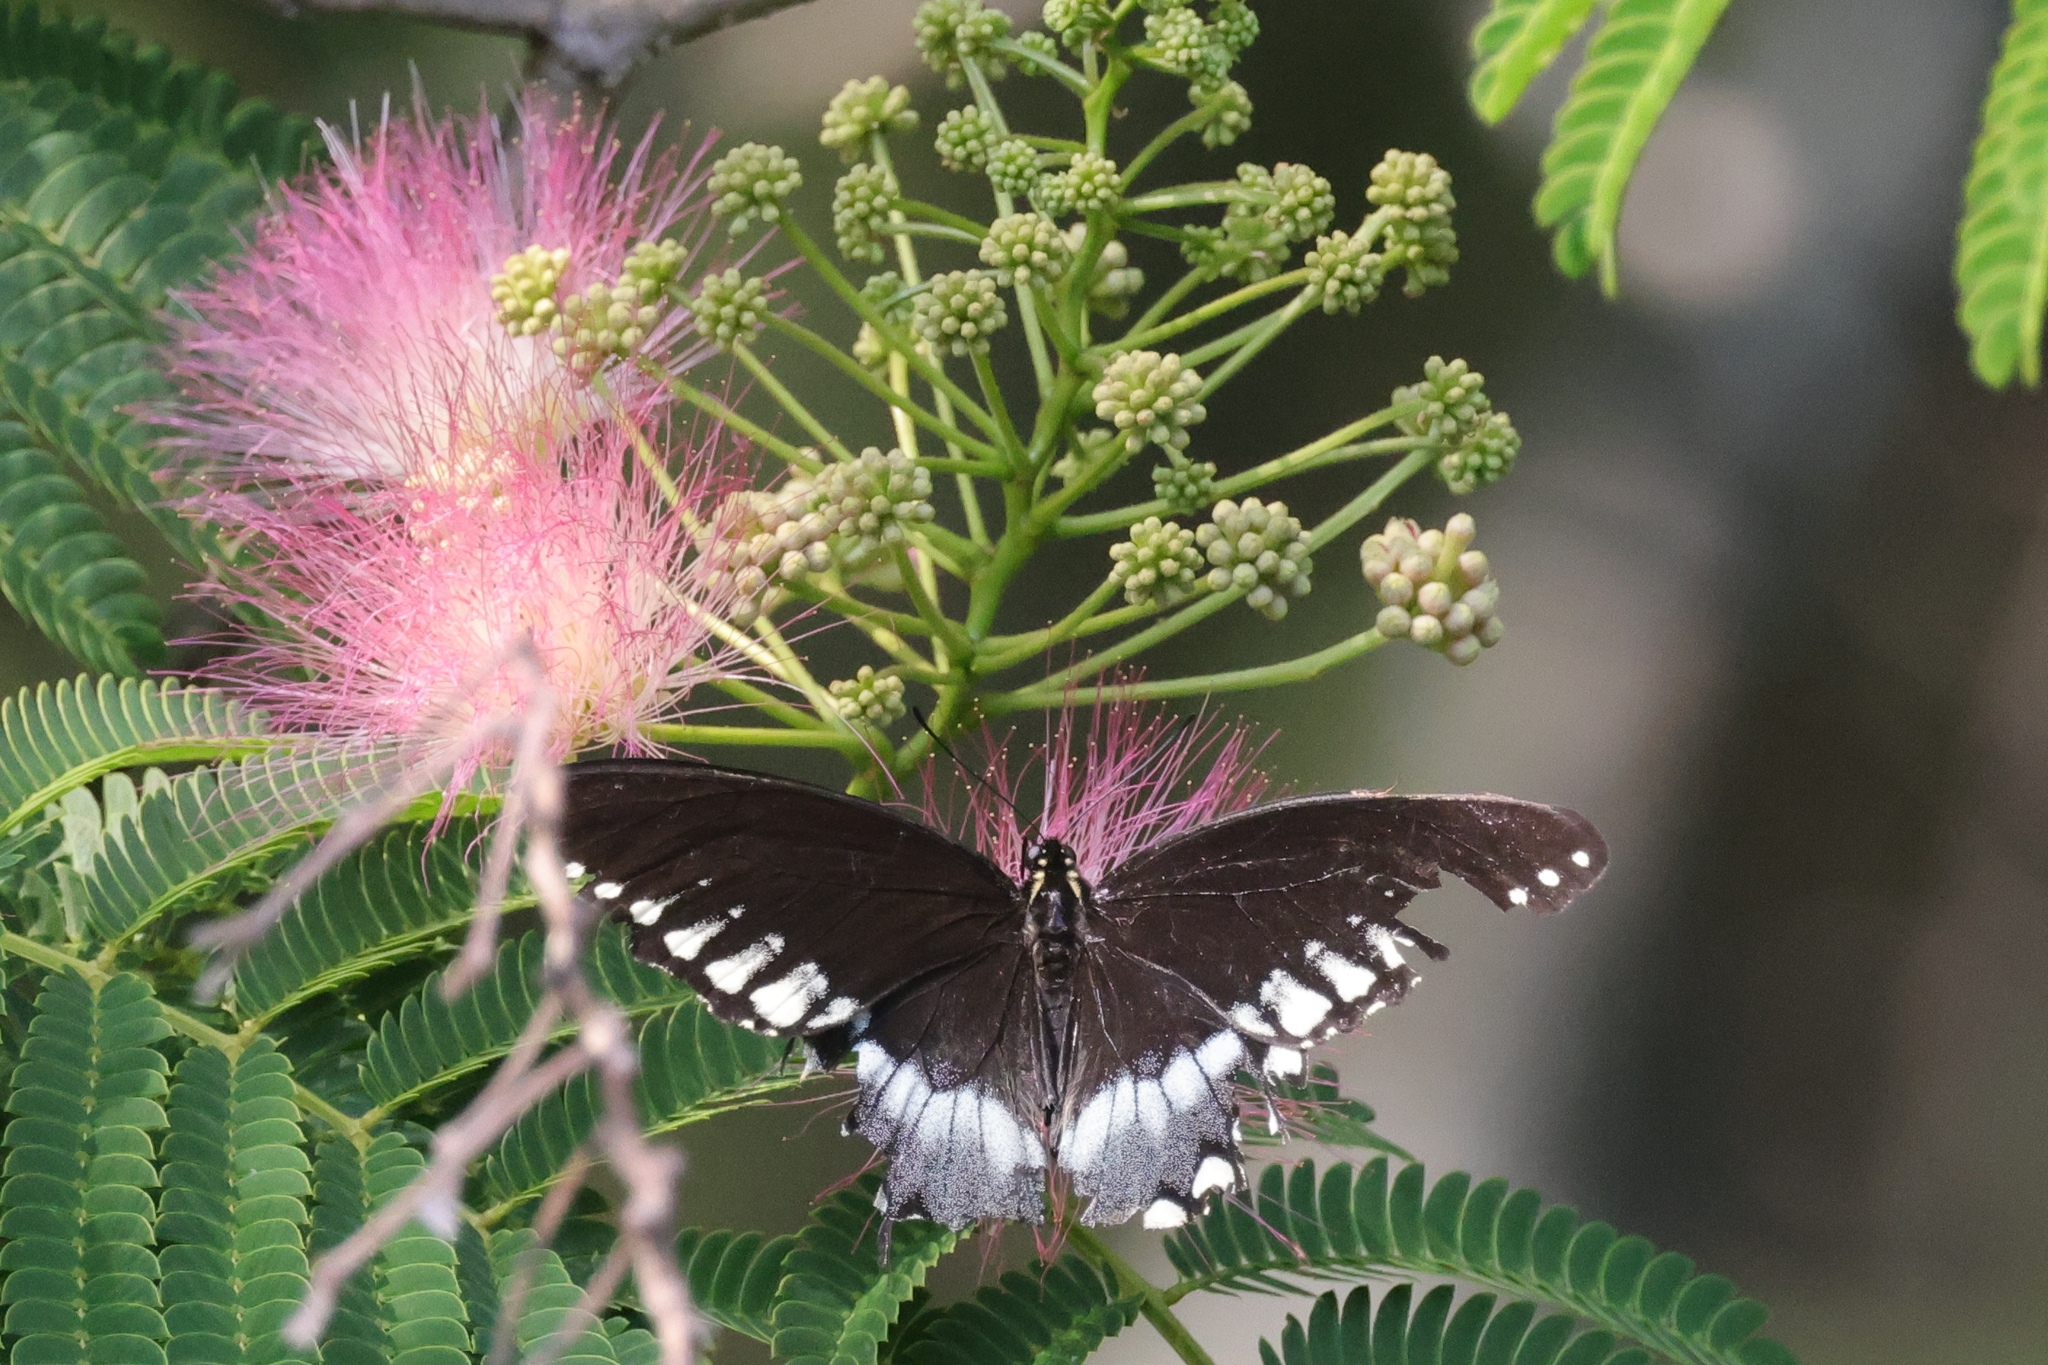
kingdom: Animalia
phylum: Arthropoda
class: Insecta
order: Lepidoptera
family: Papilionidae
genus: Papilio
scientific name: Papilio troilus
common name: Spicebush swallowtail
